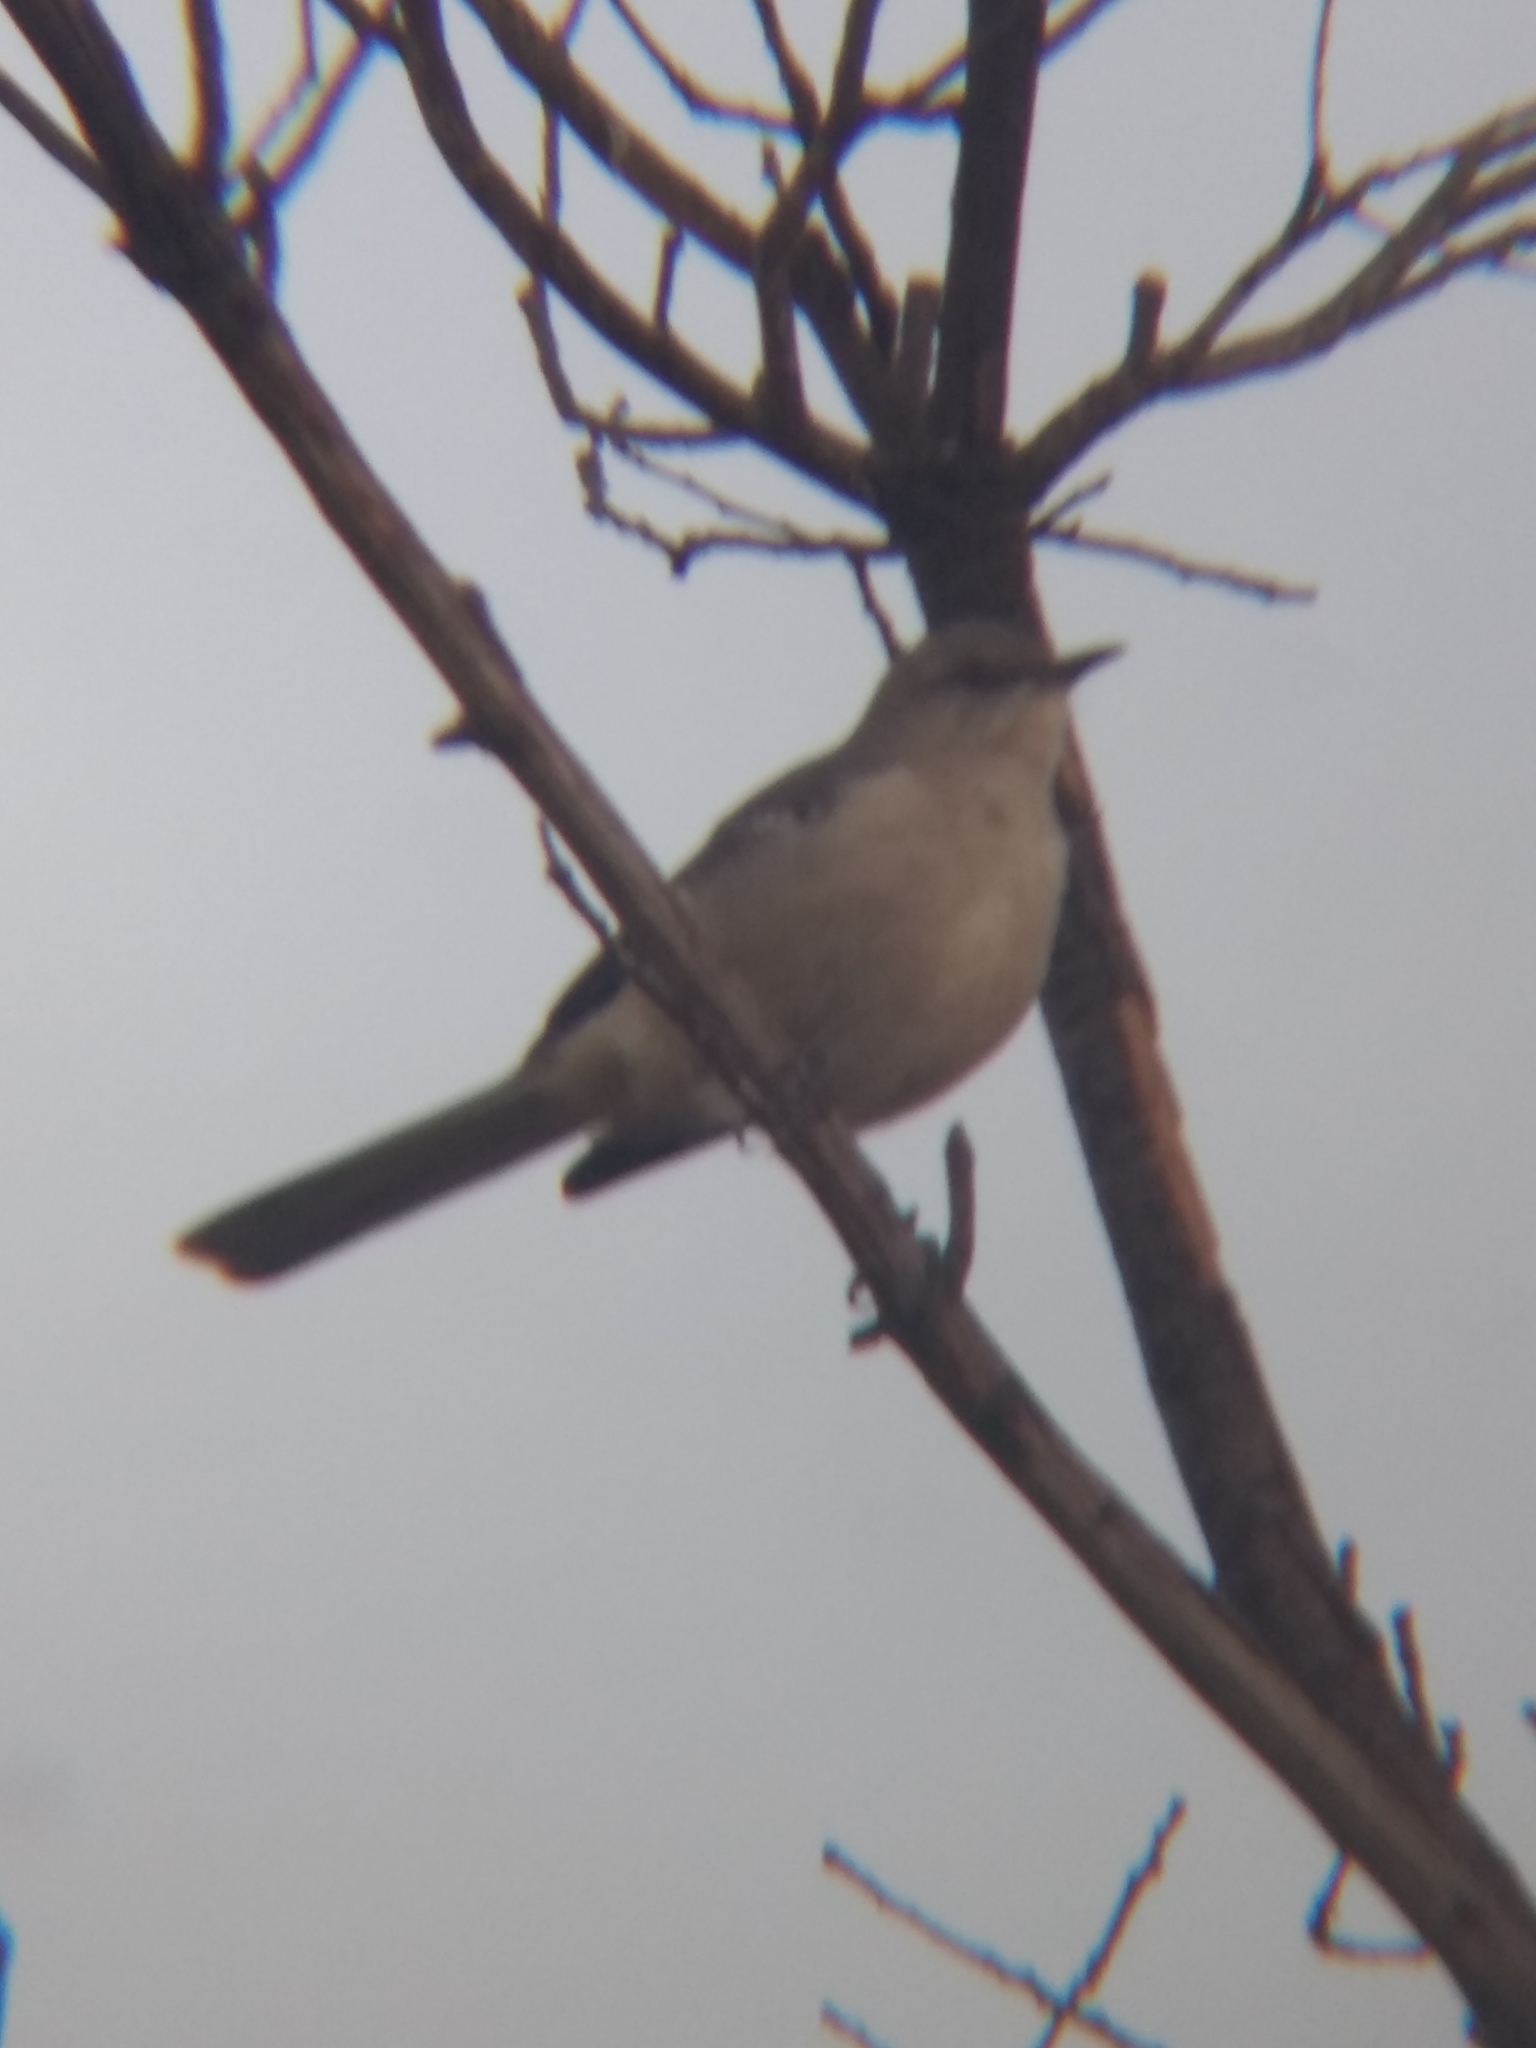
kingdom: Animalia
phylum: Chordata
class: Aves
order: Passeriformes
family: Mimidae
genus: Mimus
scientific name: Mimus polyglottos
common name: Northern mockingbird
